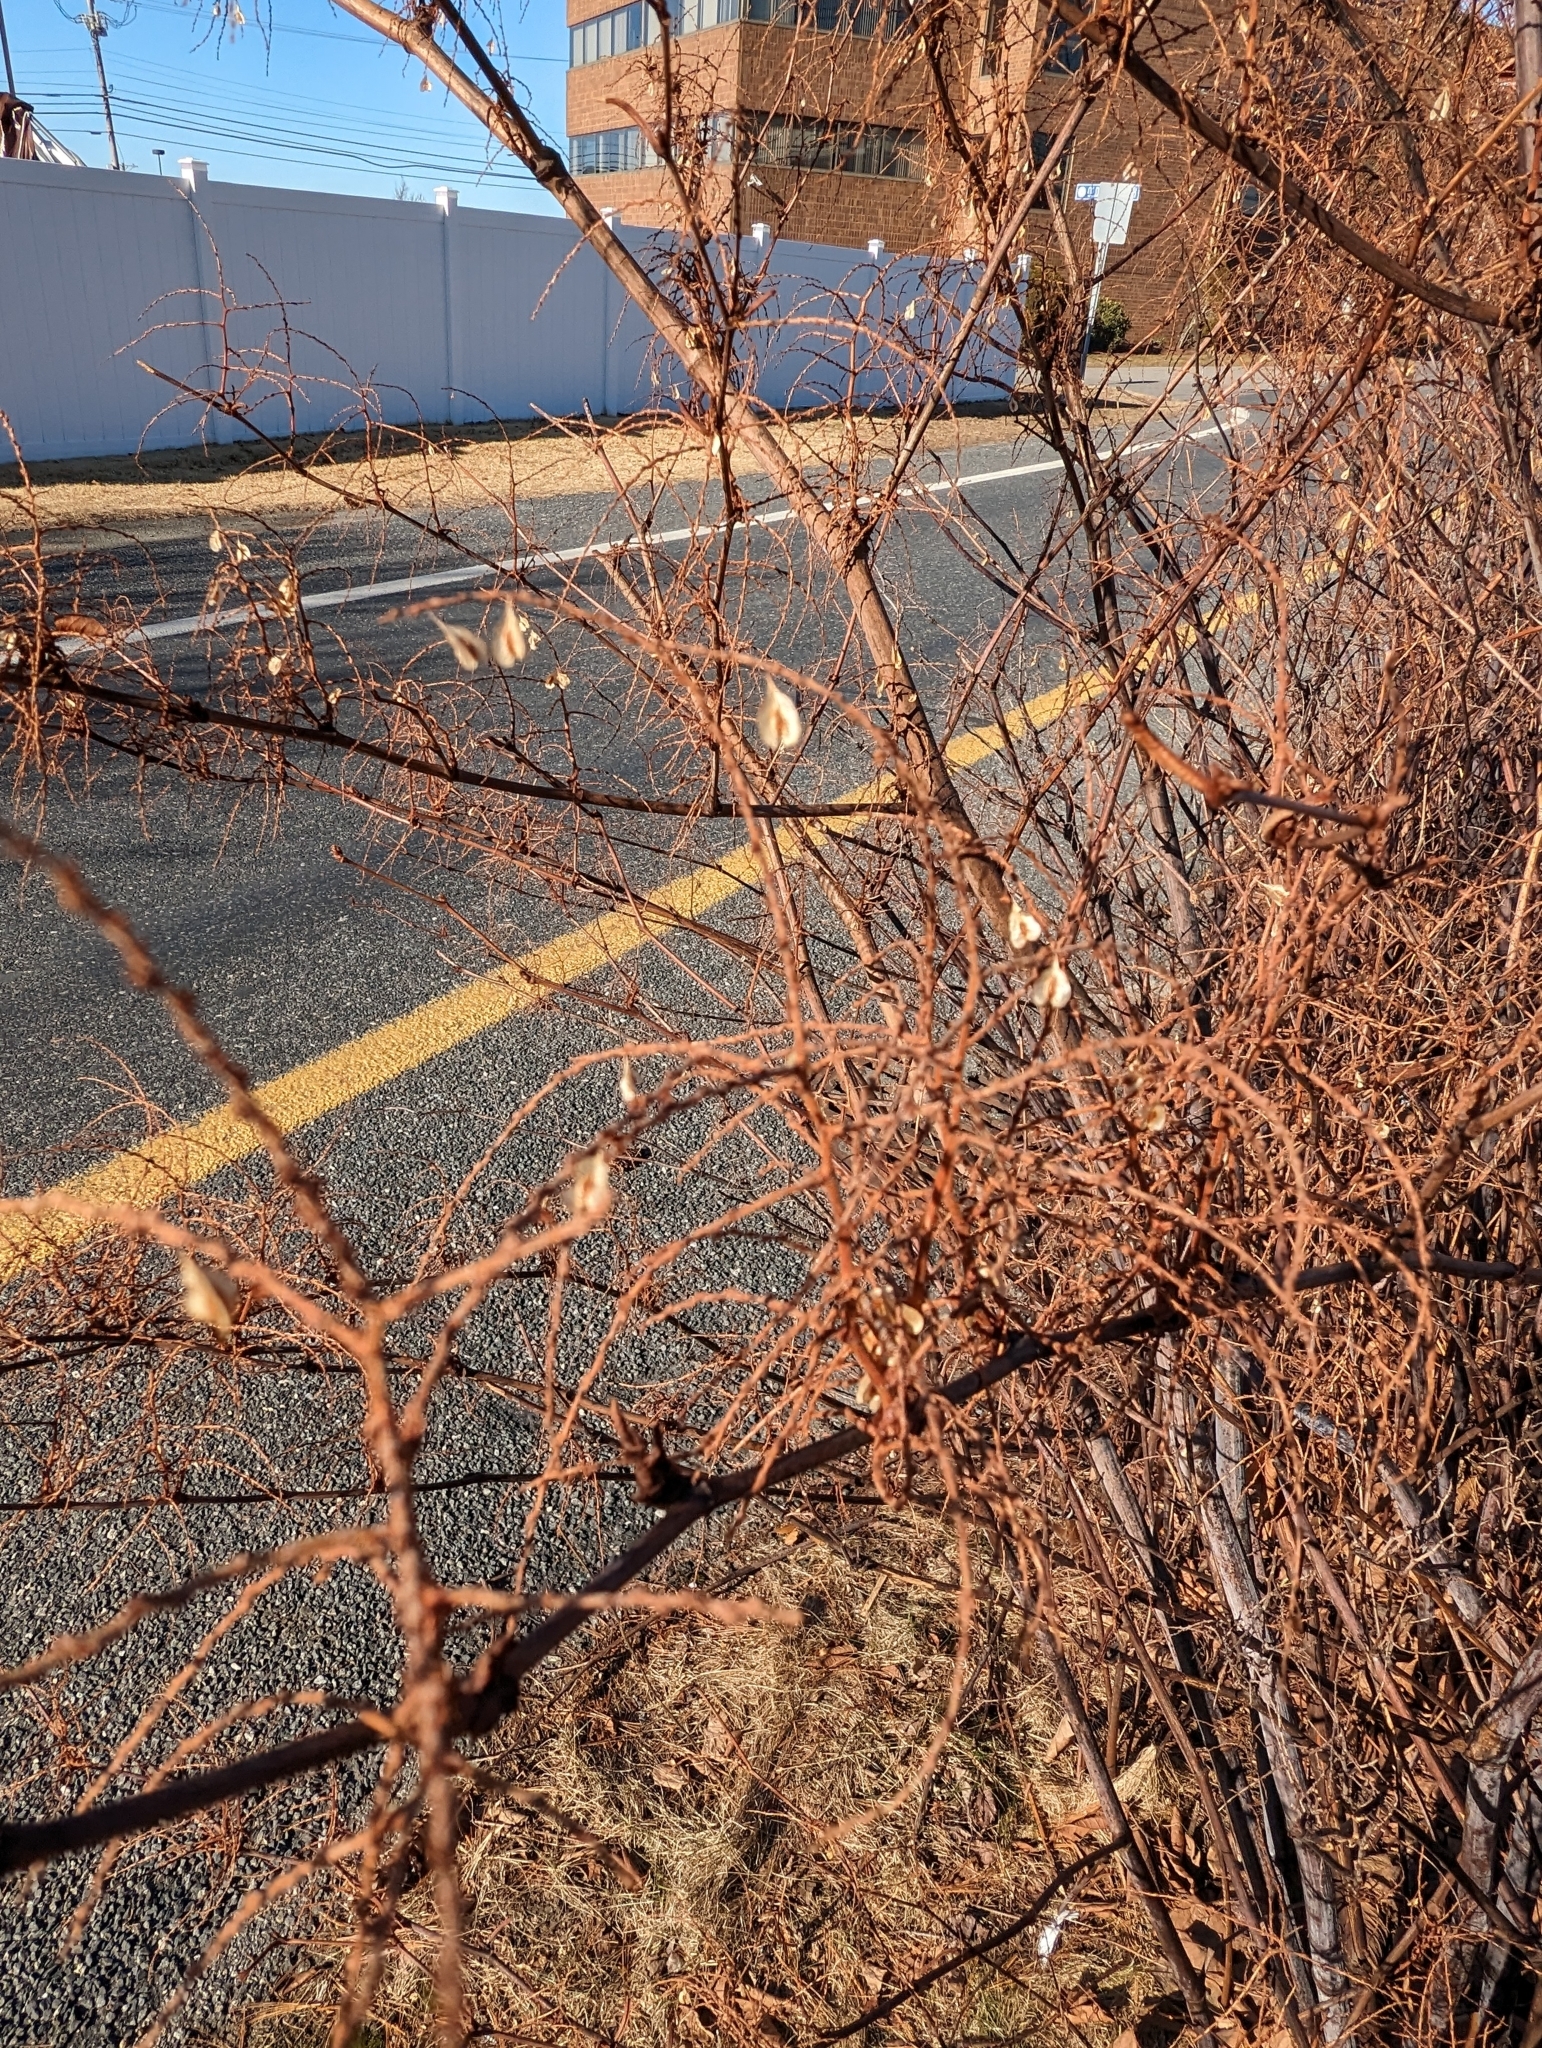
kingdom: Plantae
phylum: Tracheophyta
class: Magnoliopsida
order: Caryophyllales
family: Polygonaceae
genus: Reynoutria
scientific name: Reynoutria japonica
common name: Japanese knotweed
